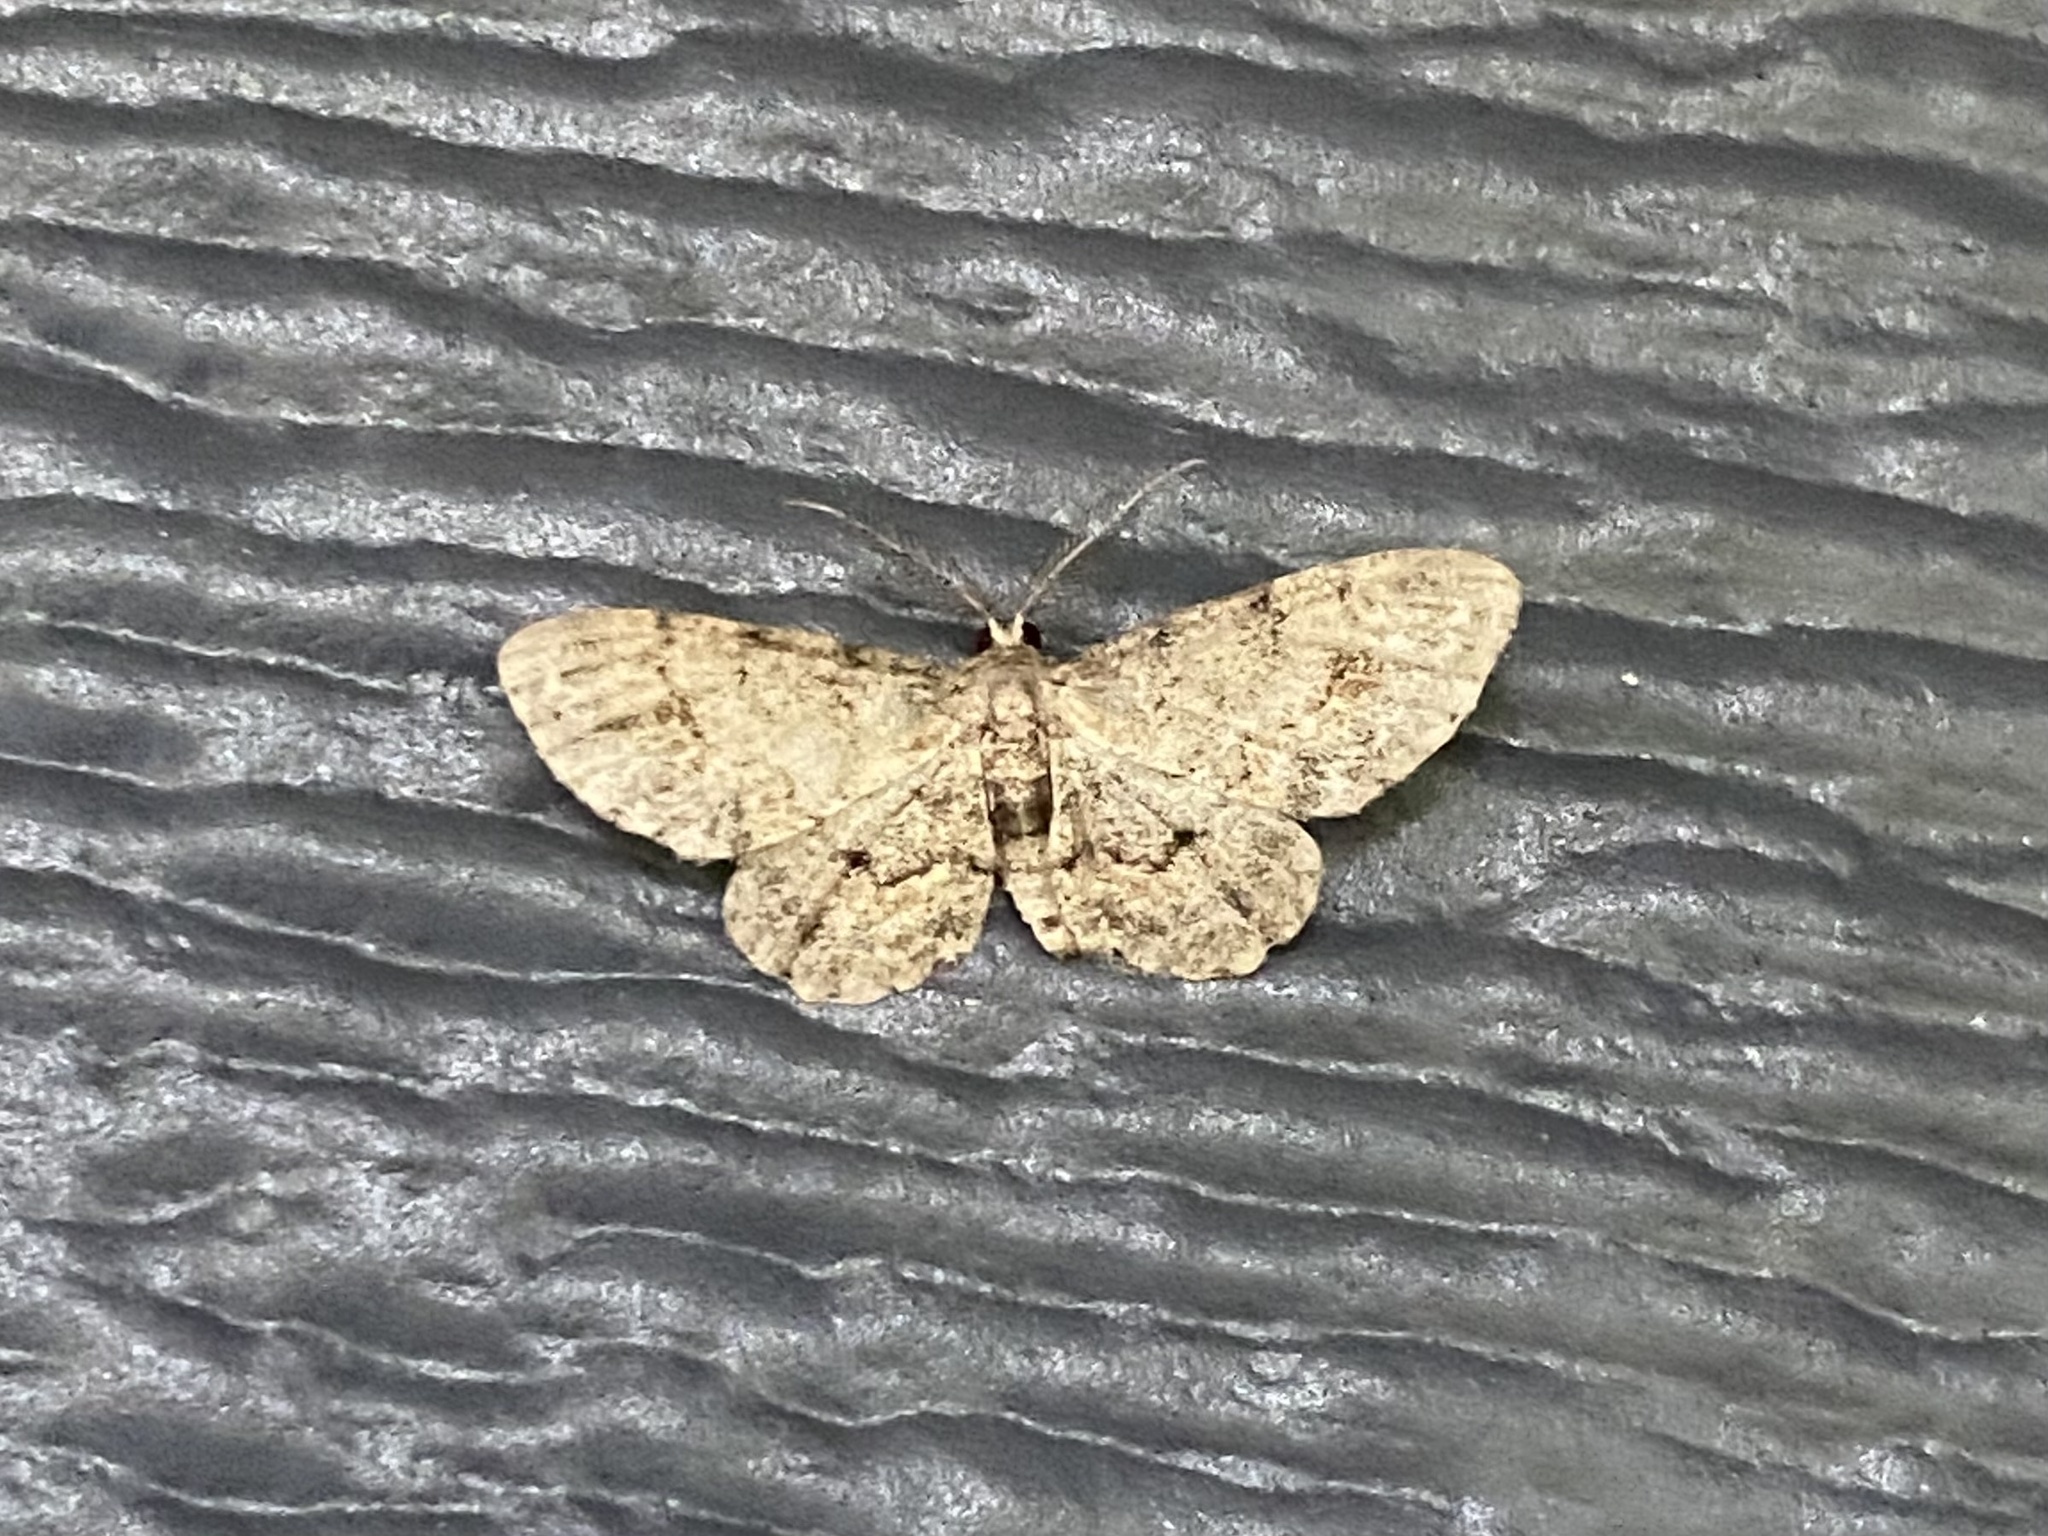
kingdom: Animalia
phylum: Arthropoda
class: Insecta
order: Lepidoptera
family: Geometridae
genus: Glenoides
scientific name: Glenoides texanaria
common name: Texas gray
